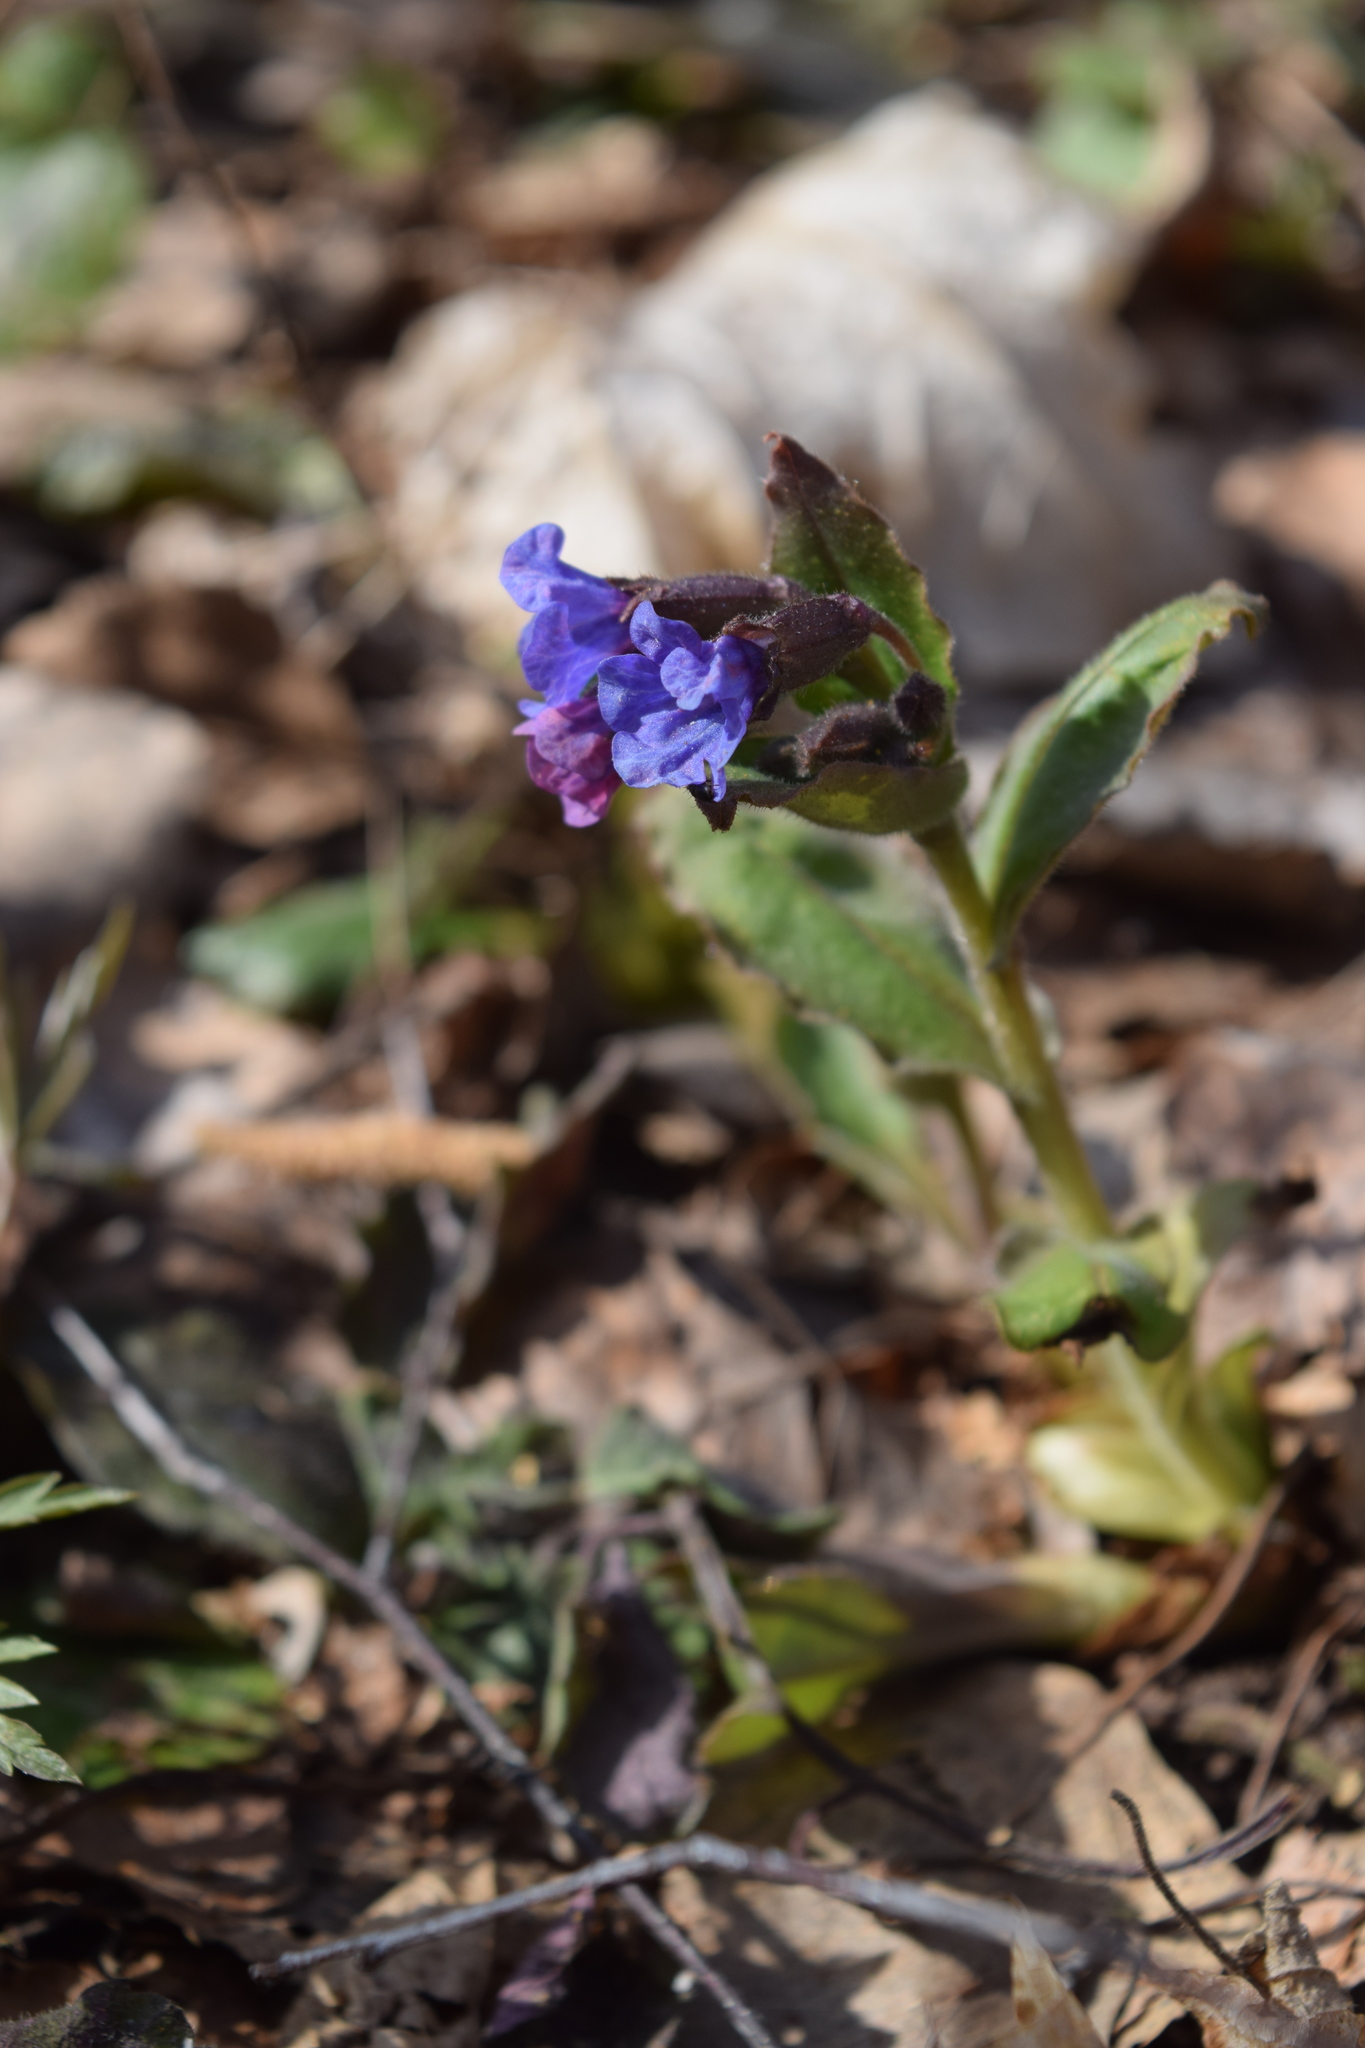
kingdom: Plantae
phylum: Tracheophyta
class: Magnoliopsida
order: Boraginales
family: Boraginaceae
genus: Pulmonaria
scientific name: Pulmonaria obscura
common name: Suffolk lungwort
